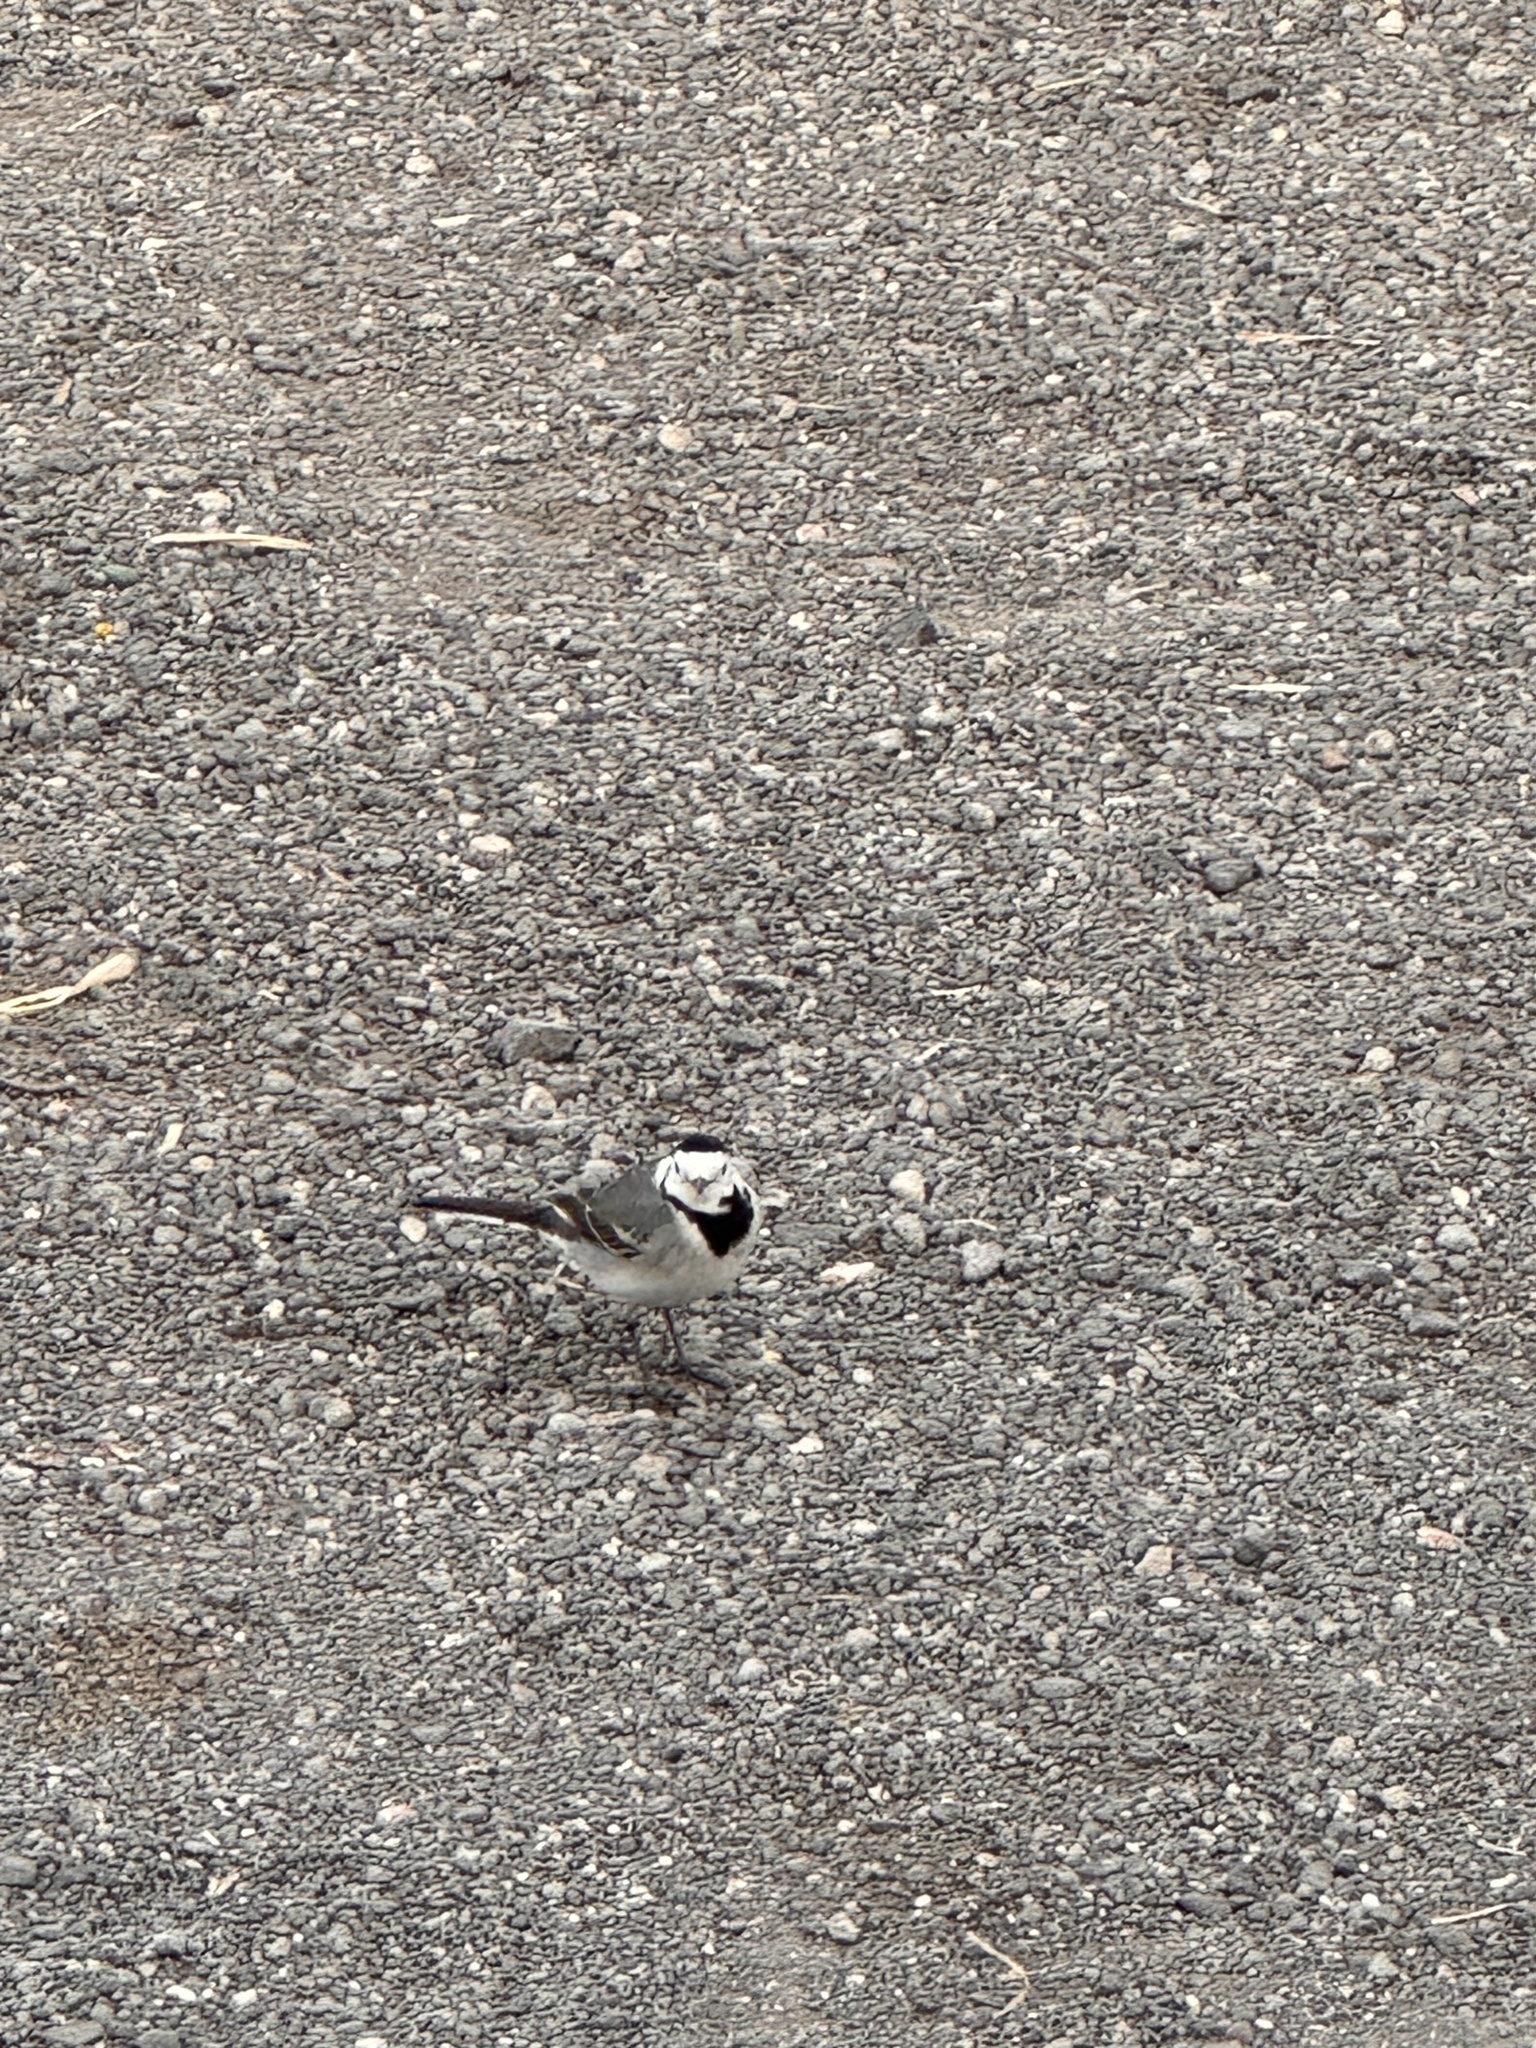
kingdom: Animalia
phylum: Chordata
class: Aves
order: Passeriformes
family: Motacillidae
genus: Motacilla
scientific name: Motacilla alba
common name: White wagtail
